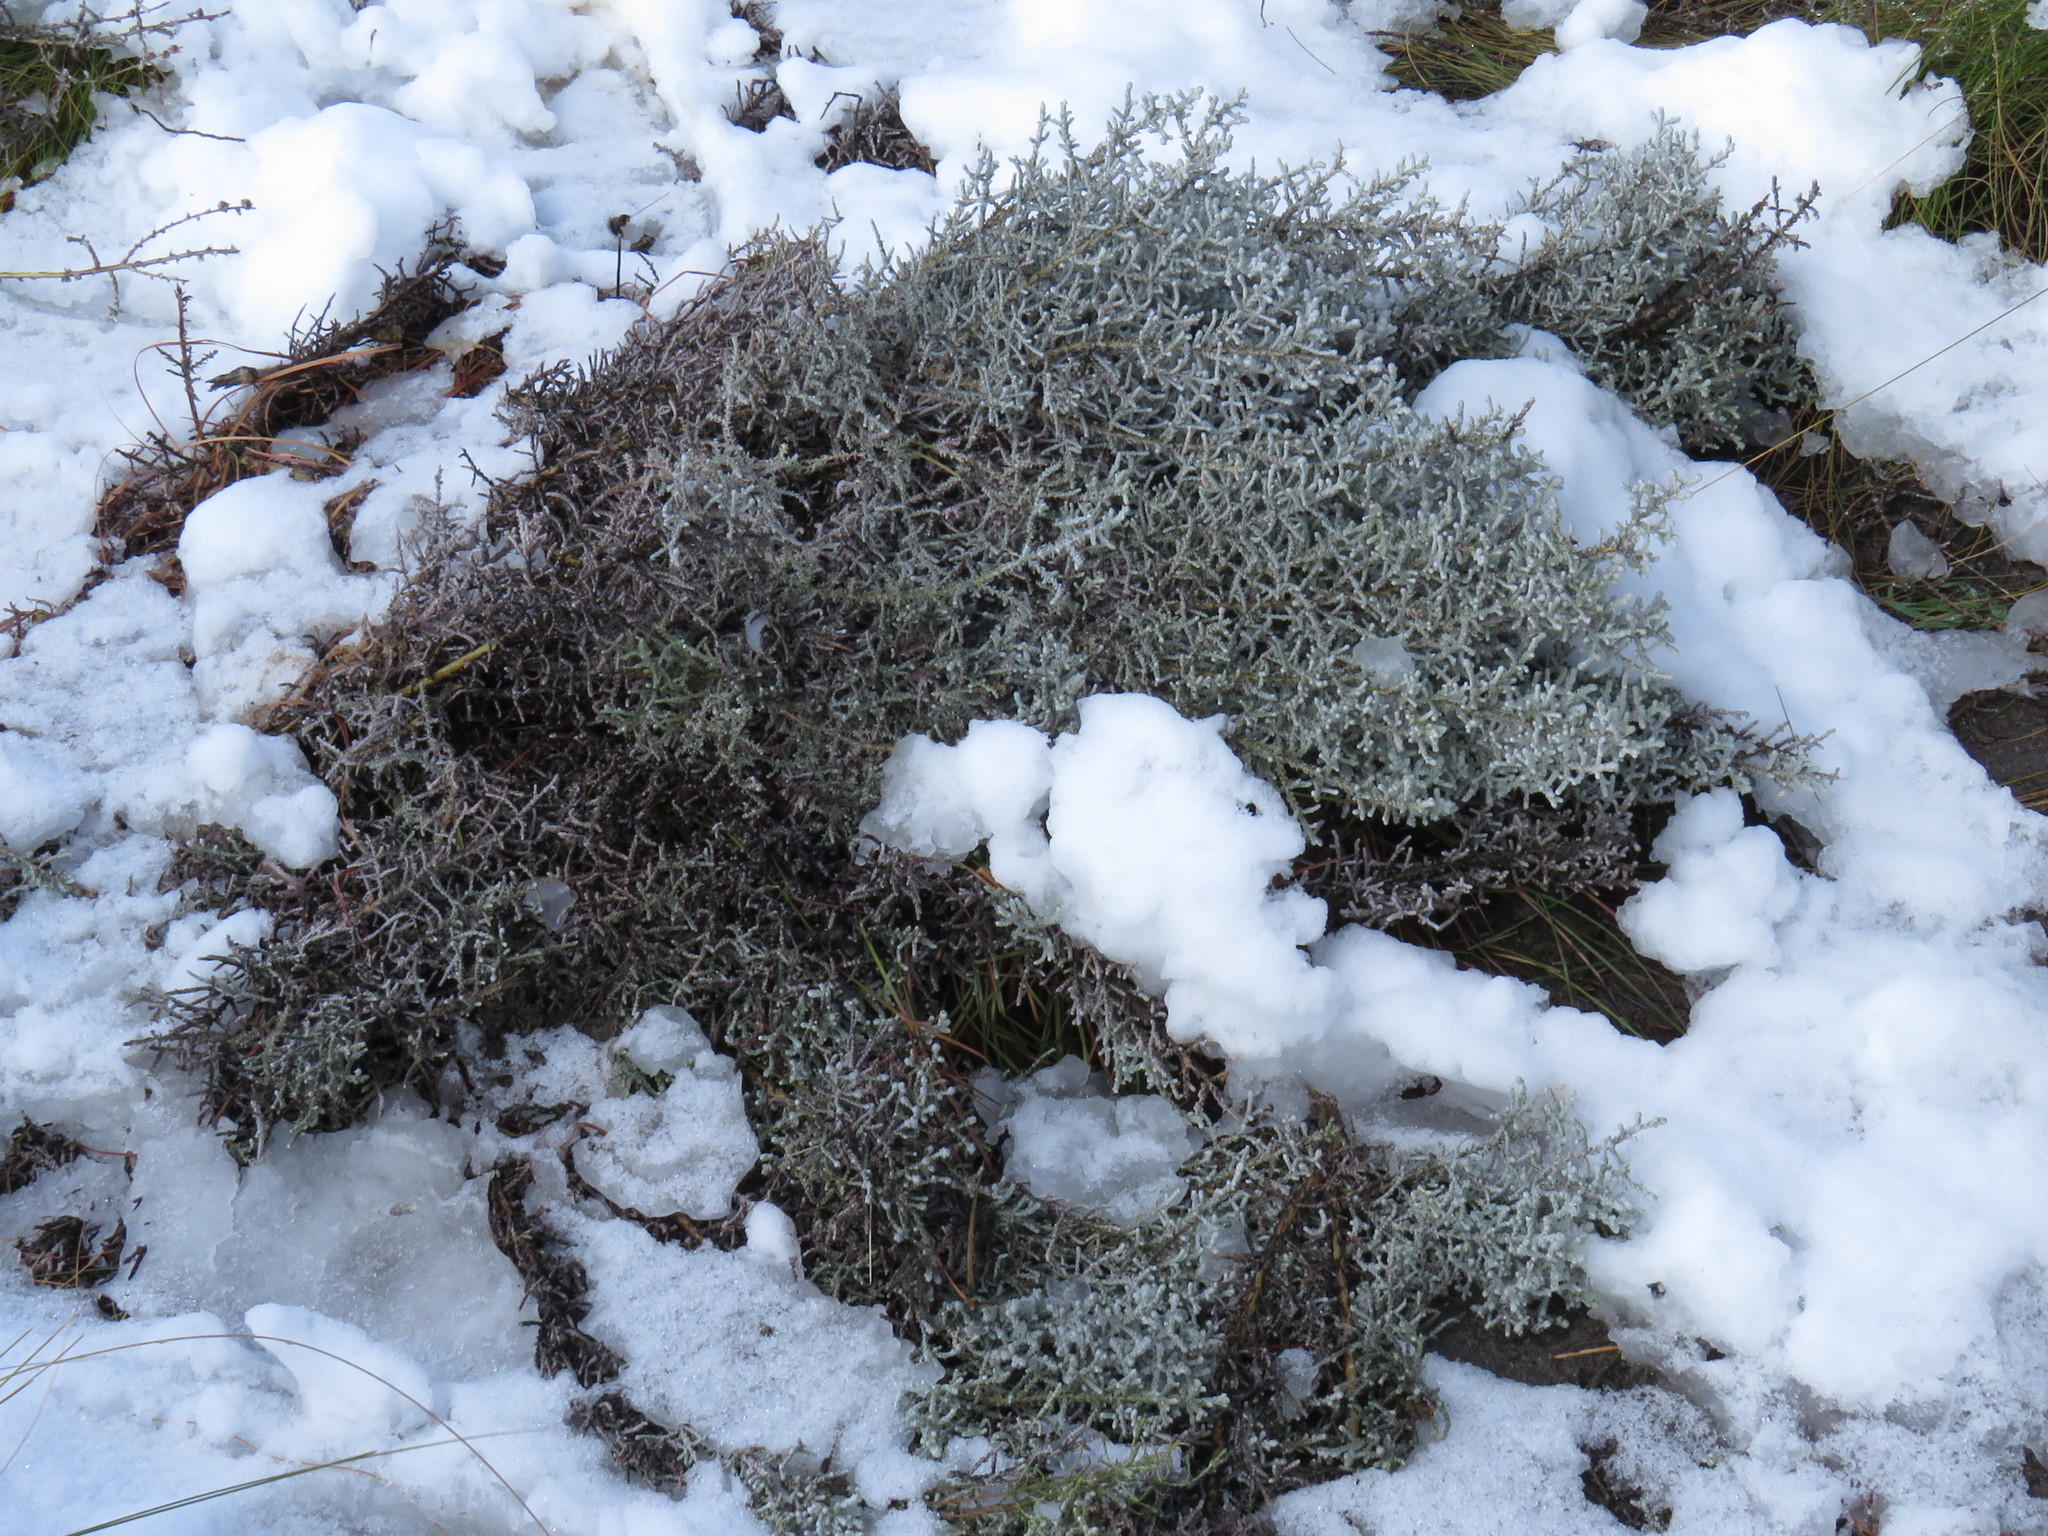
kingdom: Plantae
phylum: Tracheophyta
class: Magnoliopsida
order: Asterales
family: Asteraceae
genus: Seriphium
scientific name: Seriphium plumosum
